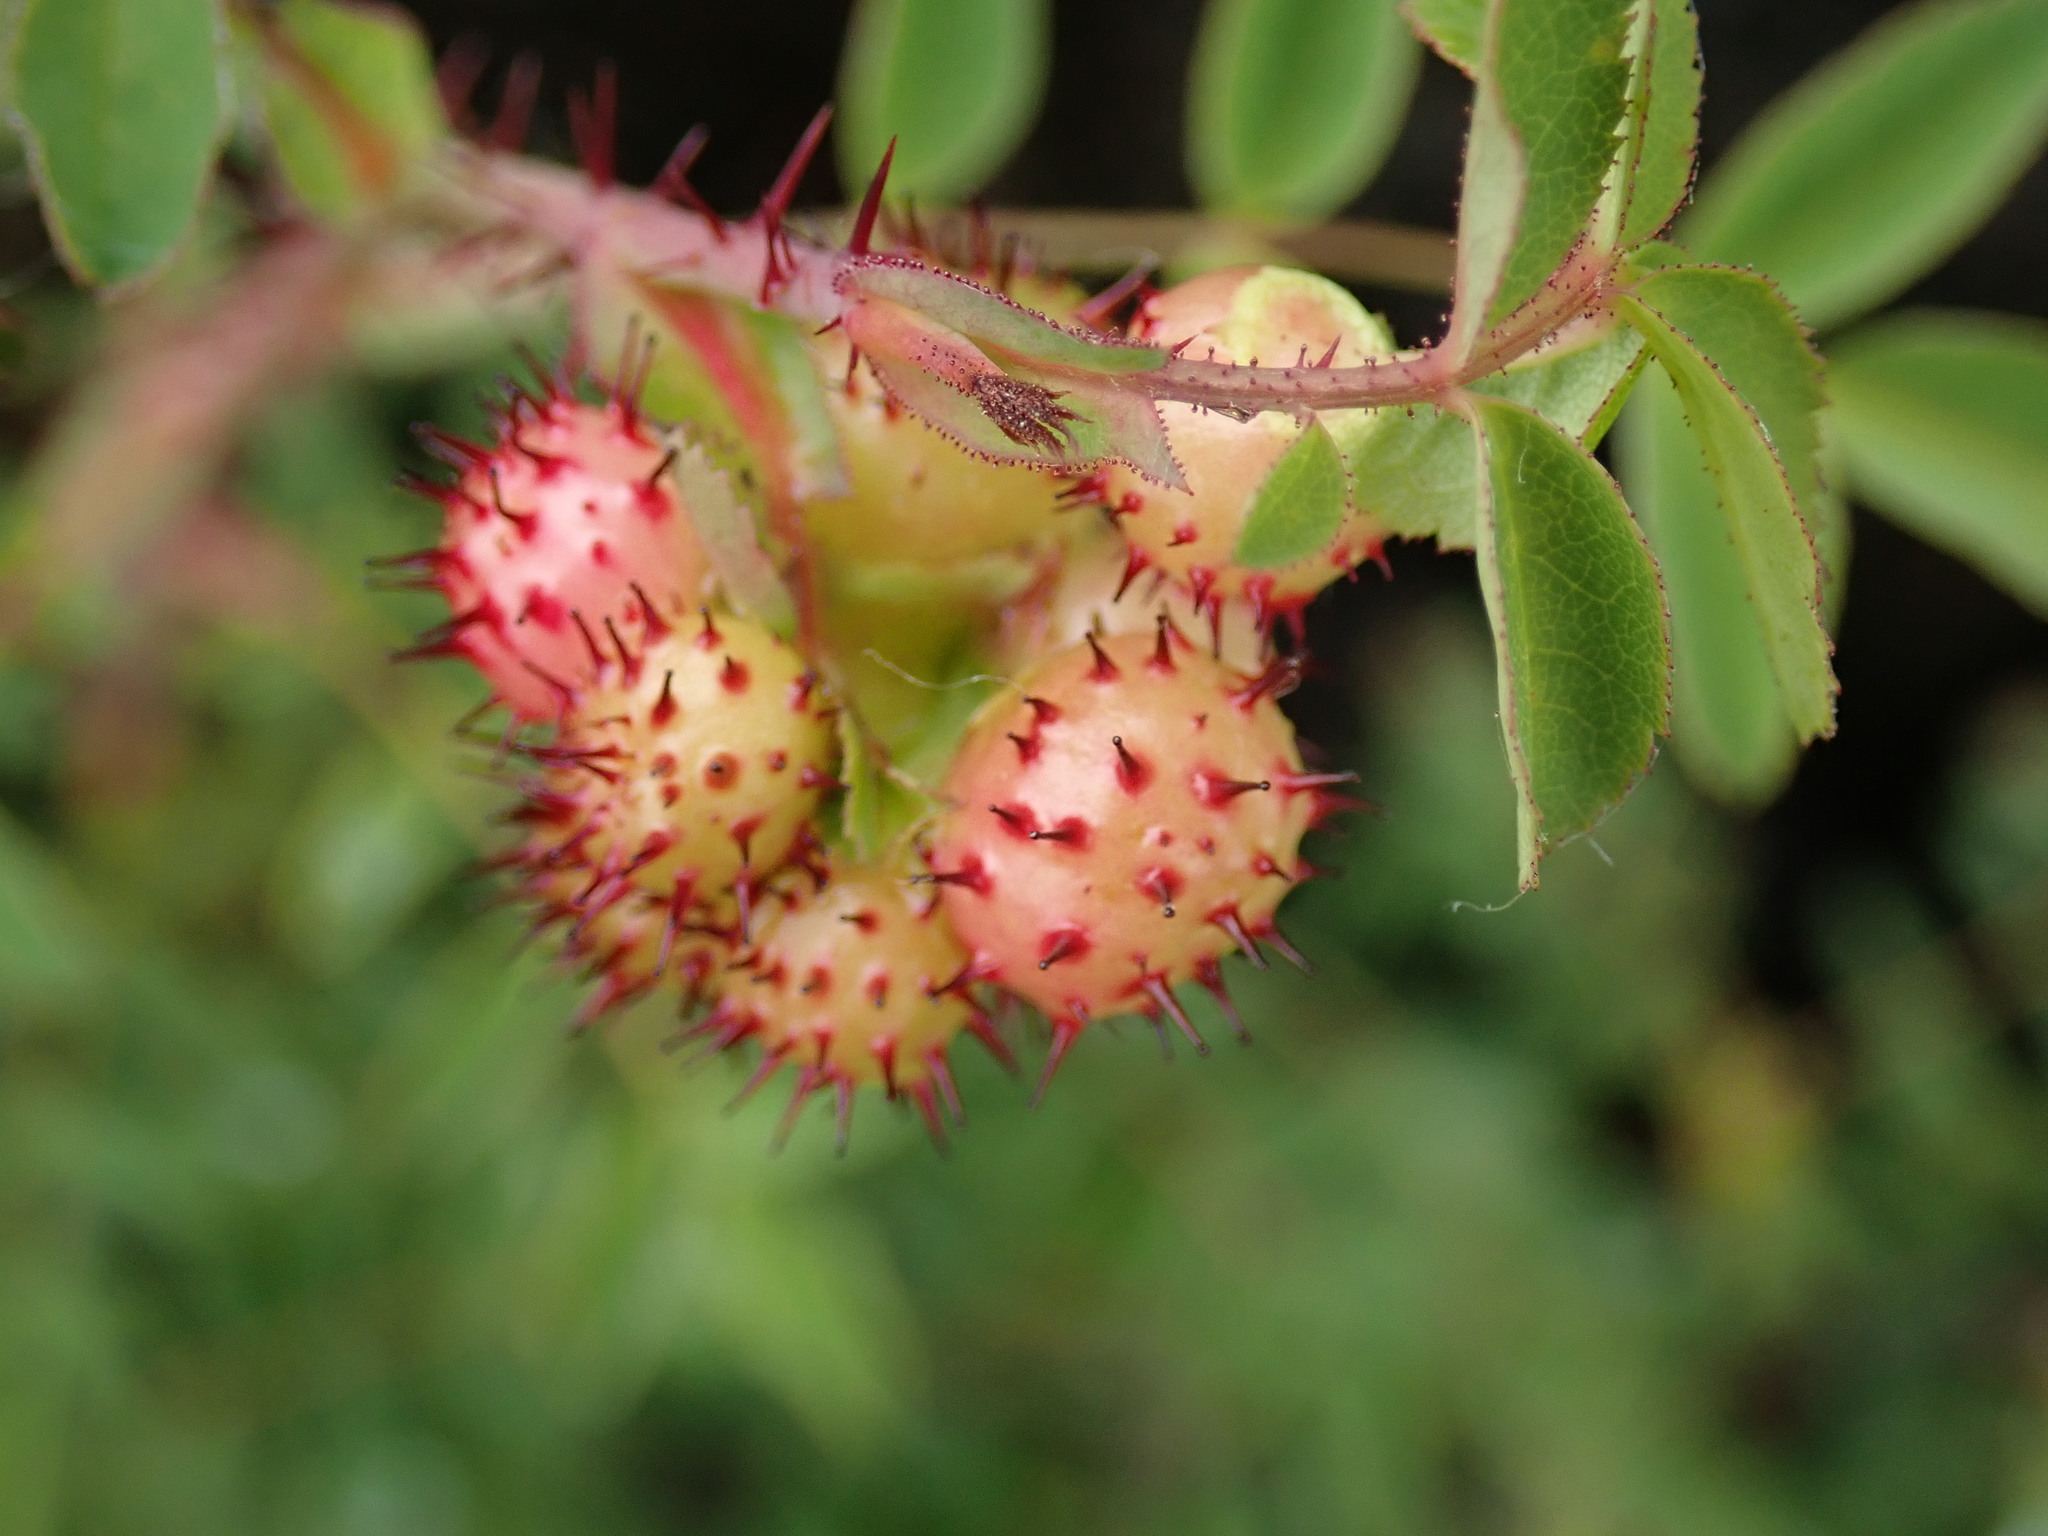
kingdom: Animalia
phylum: Arthropoda
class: Insecta
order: Hymenoptera
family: Cynipidae
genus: Diplolepis
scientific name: Diplolepis polita
